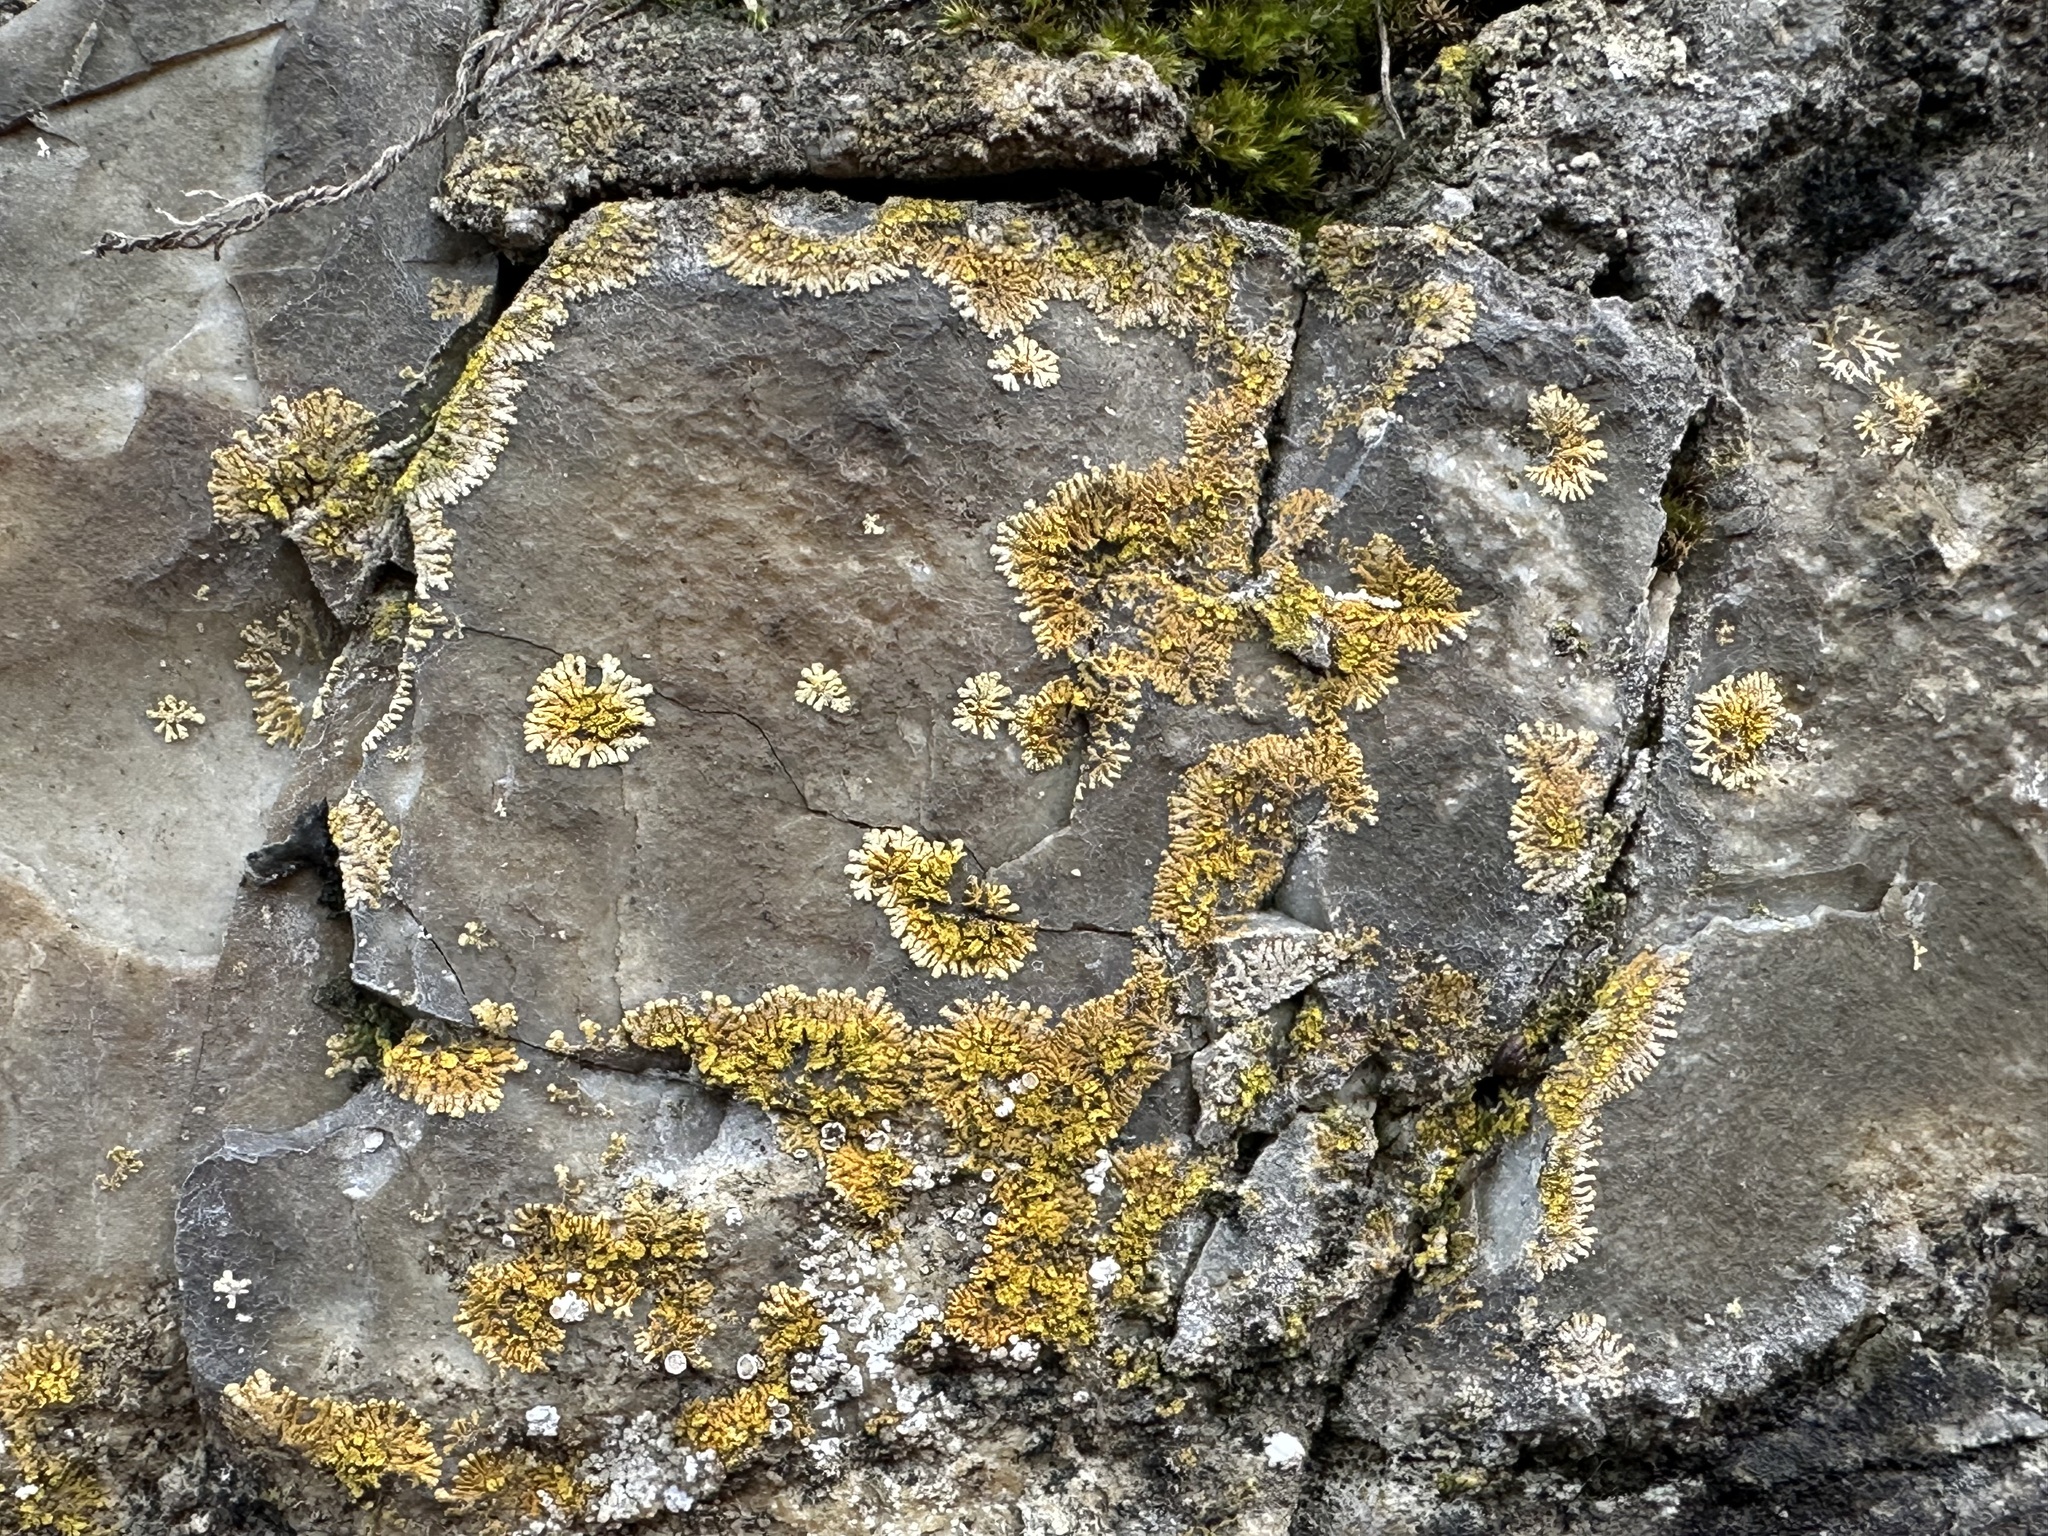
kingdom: Fungi
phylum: Ascomycota
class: Lecanoromycetes
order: Teloschistales
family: Teloschistaceae
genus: Leproplaca
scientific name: Leproplaca cirrochroa
